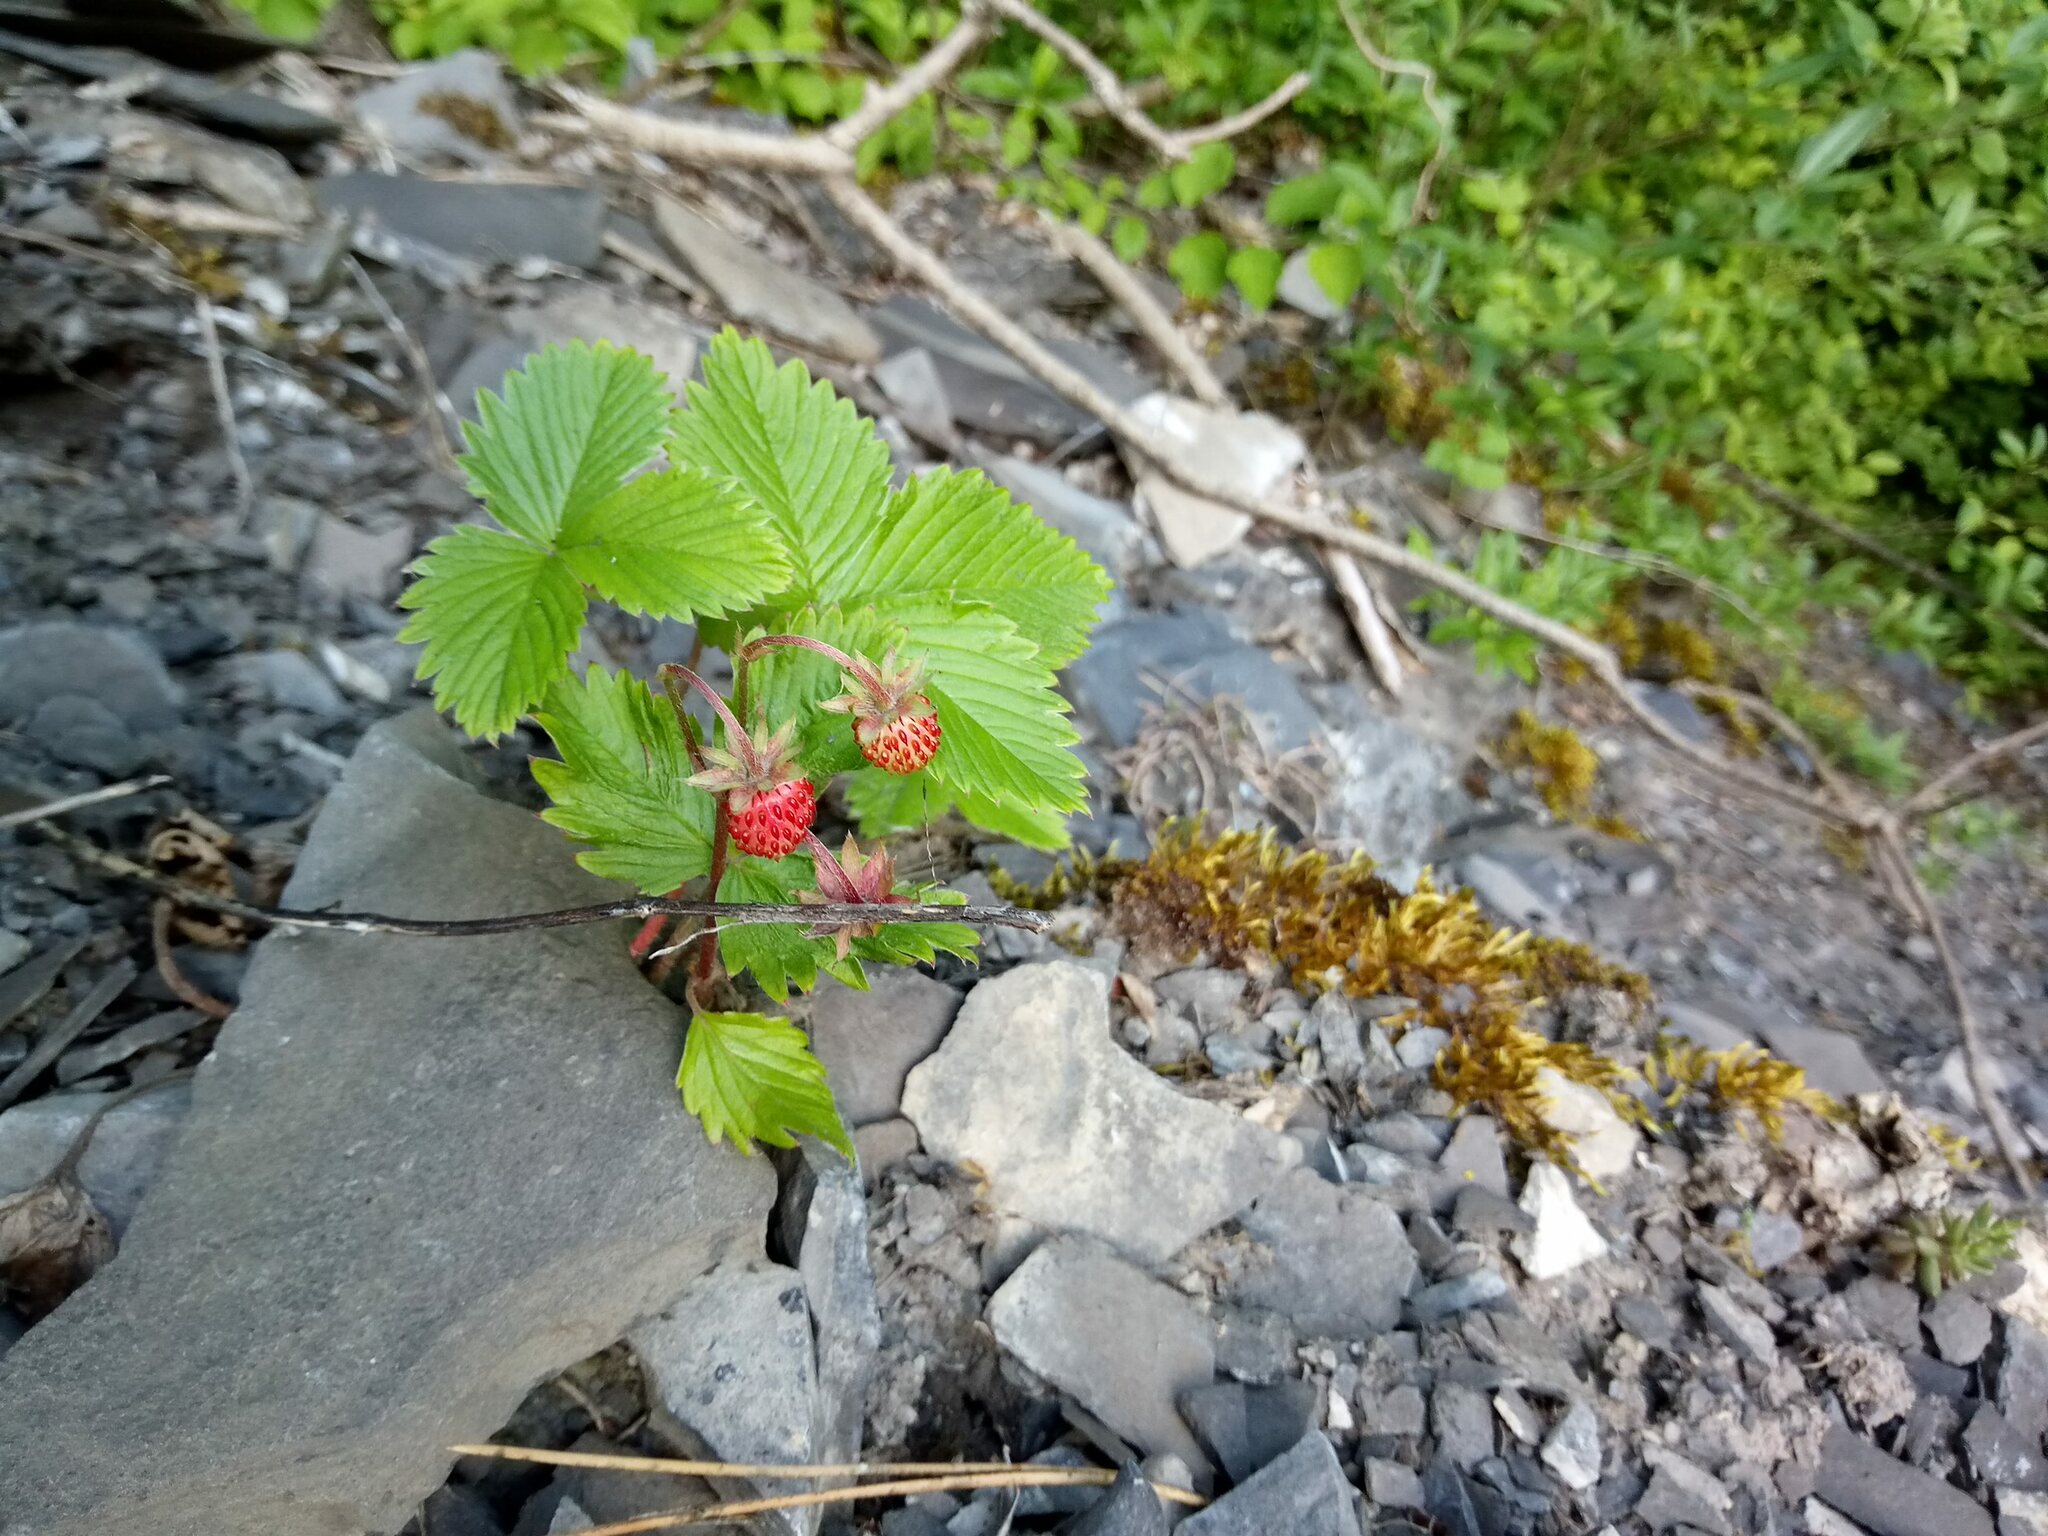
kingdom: Plantae
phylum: Tracheophyta
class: Magnoliopsida
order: Rosales
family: Rosaceae
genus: Fragaria
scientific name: Fragaria vesca
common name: Wild strawberry
